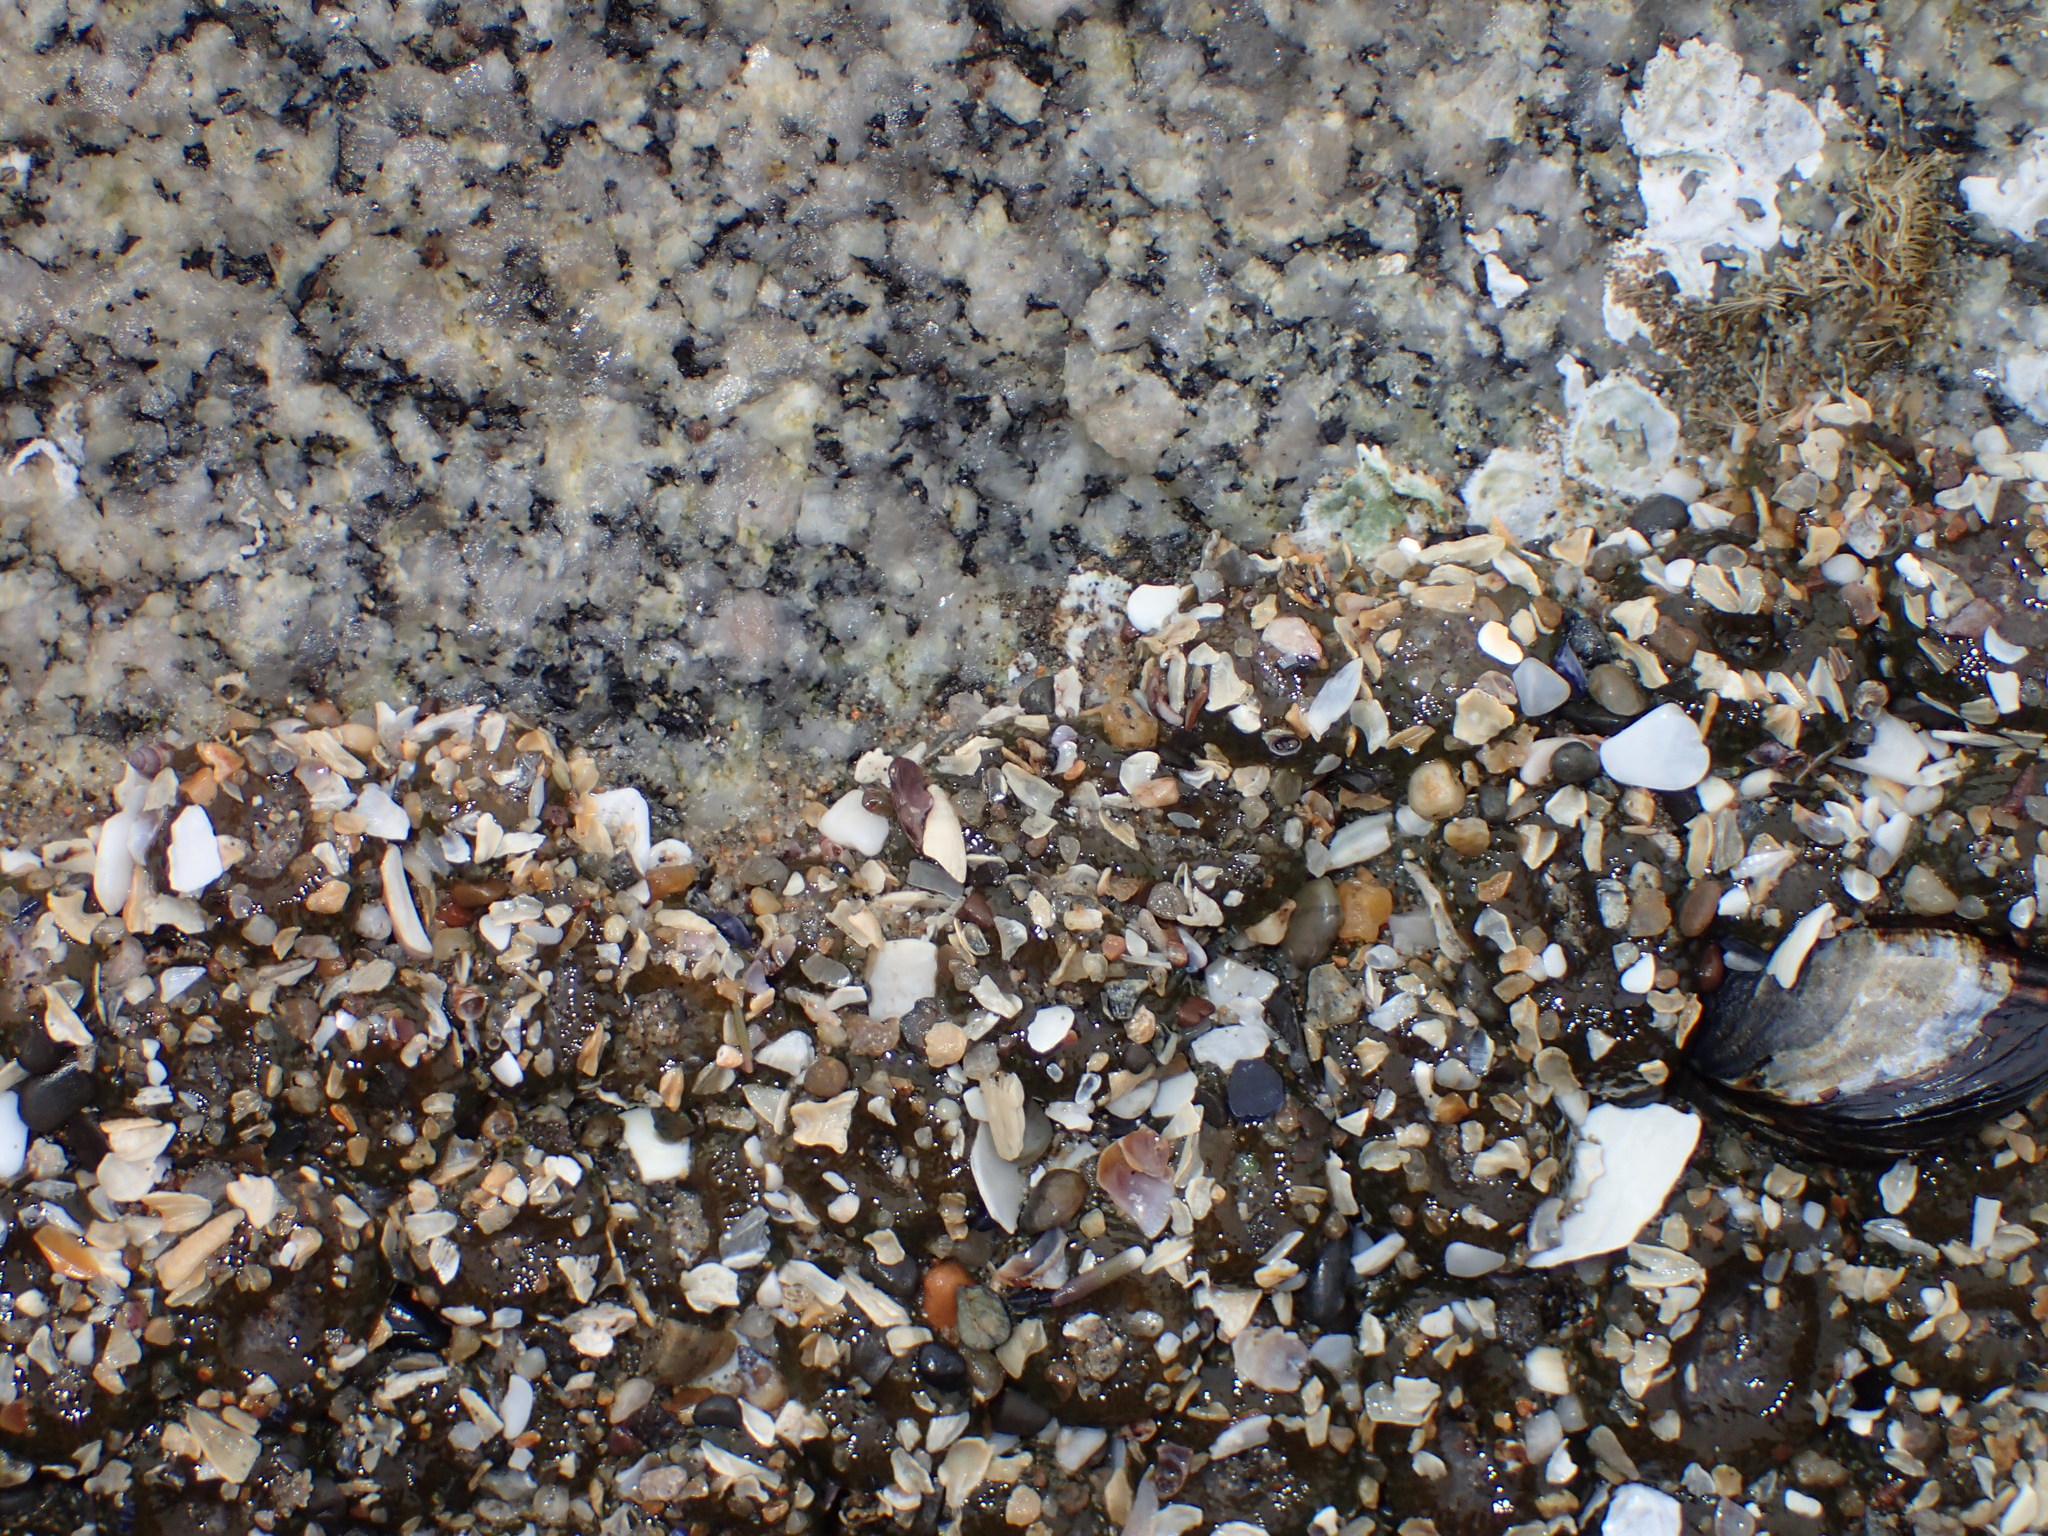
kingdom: Animalia
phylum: Cnidaria
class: Anthozoa
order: Actiniaria
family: Actiniidae
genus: Anthopleura
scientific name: Anthopleura elegantissima
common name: Clonal anemone
